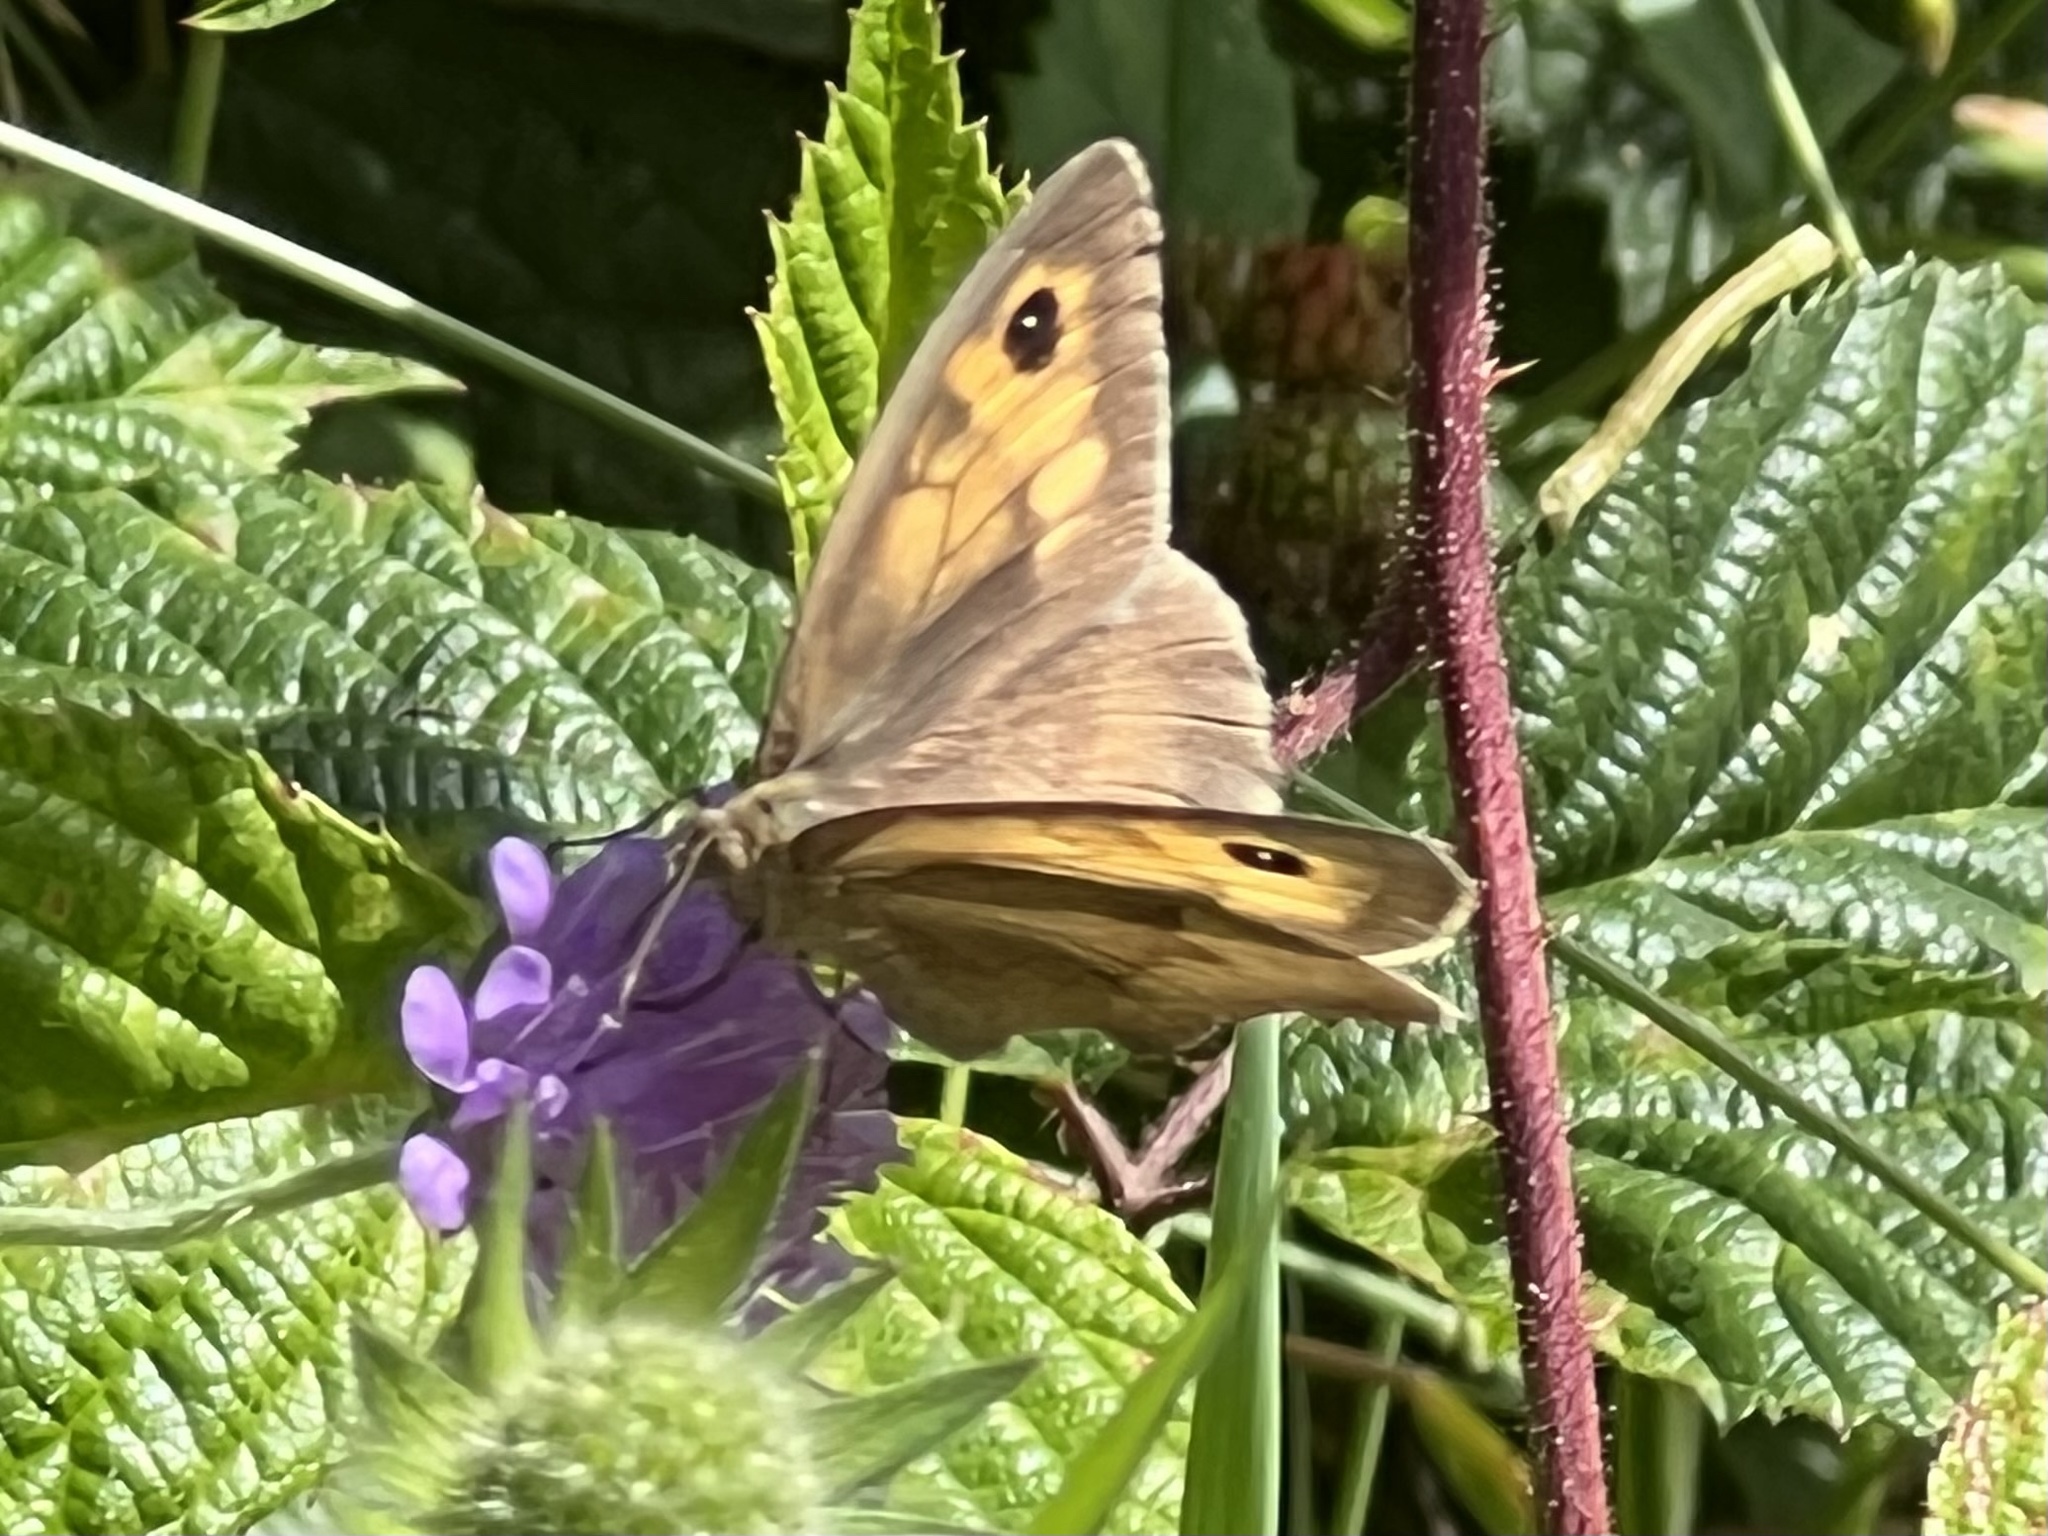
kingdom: Animalia
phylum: Arthropoda
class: Insecta
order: Lepidoptera
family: Nymphalidae
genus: Maniola
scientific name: Maniola jurtina
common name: Meadow brown
